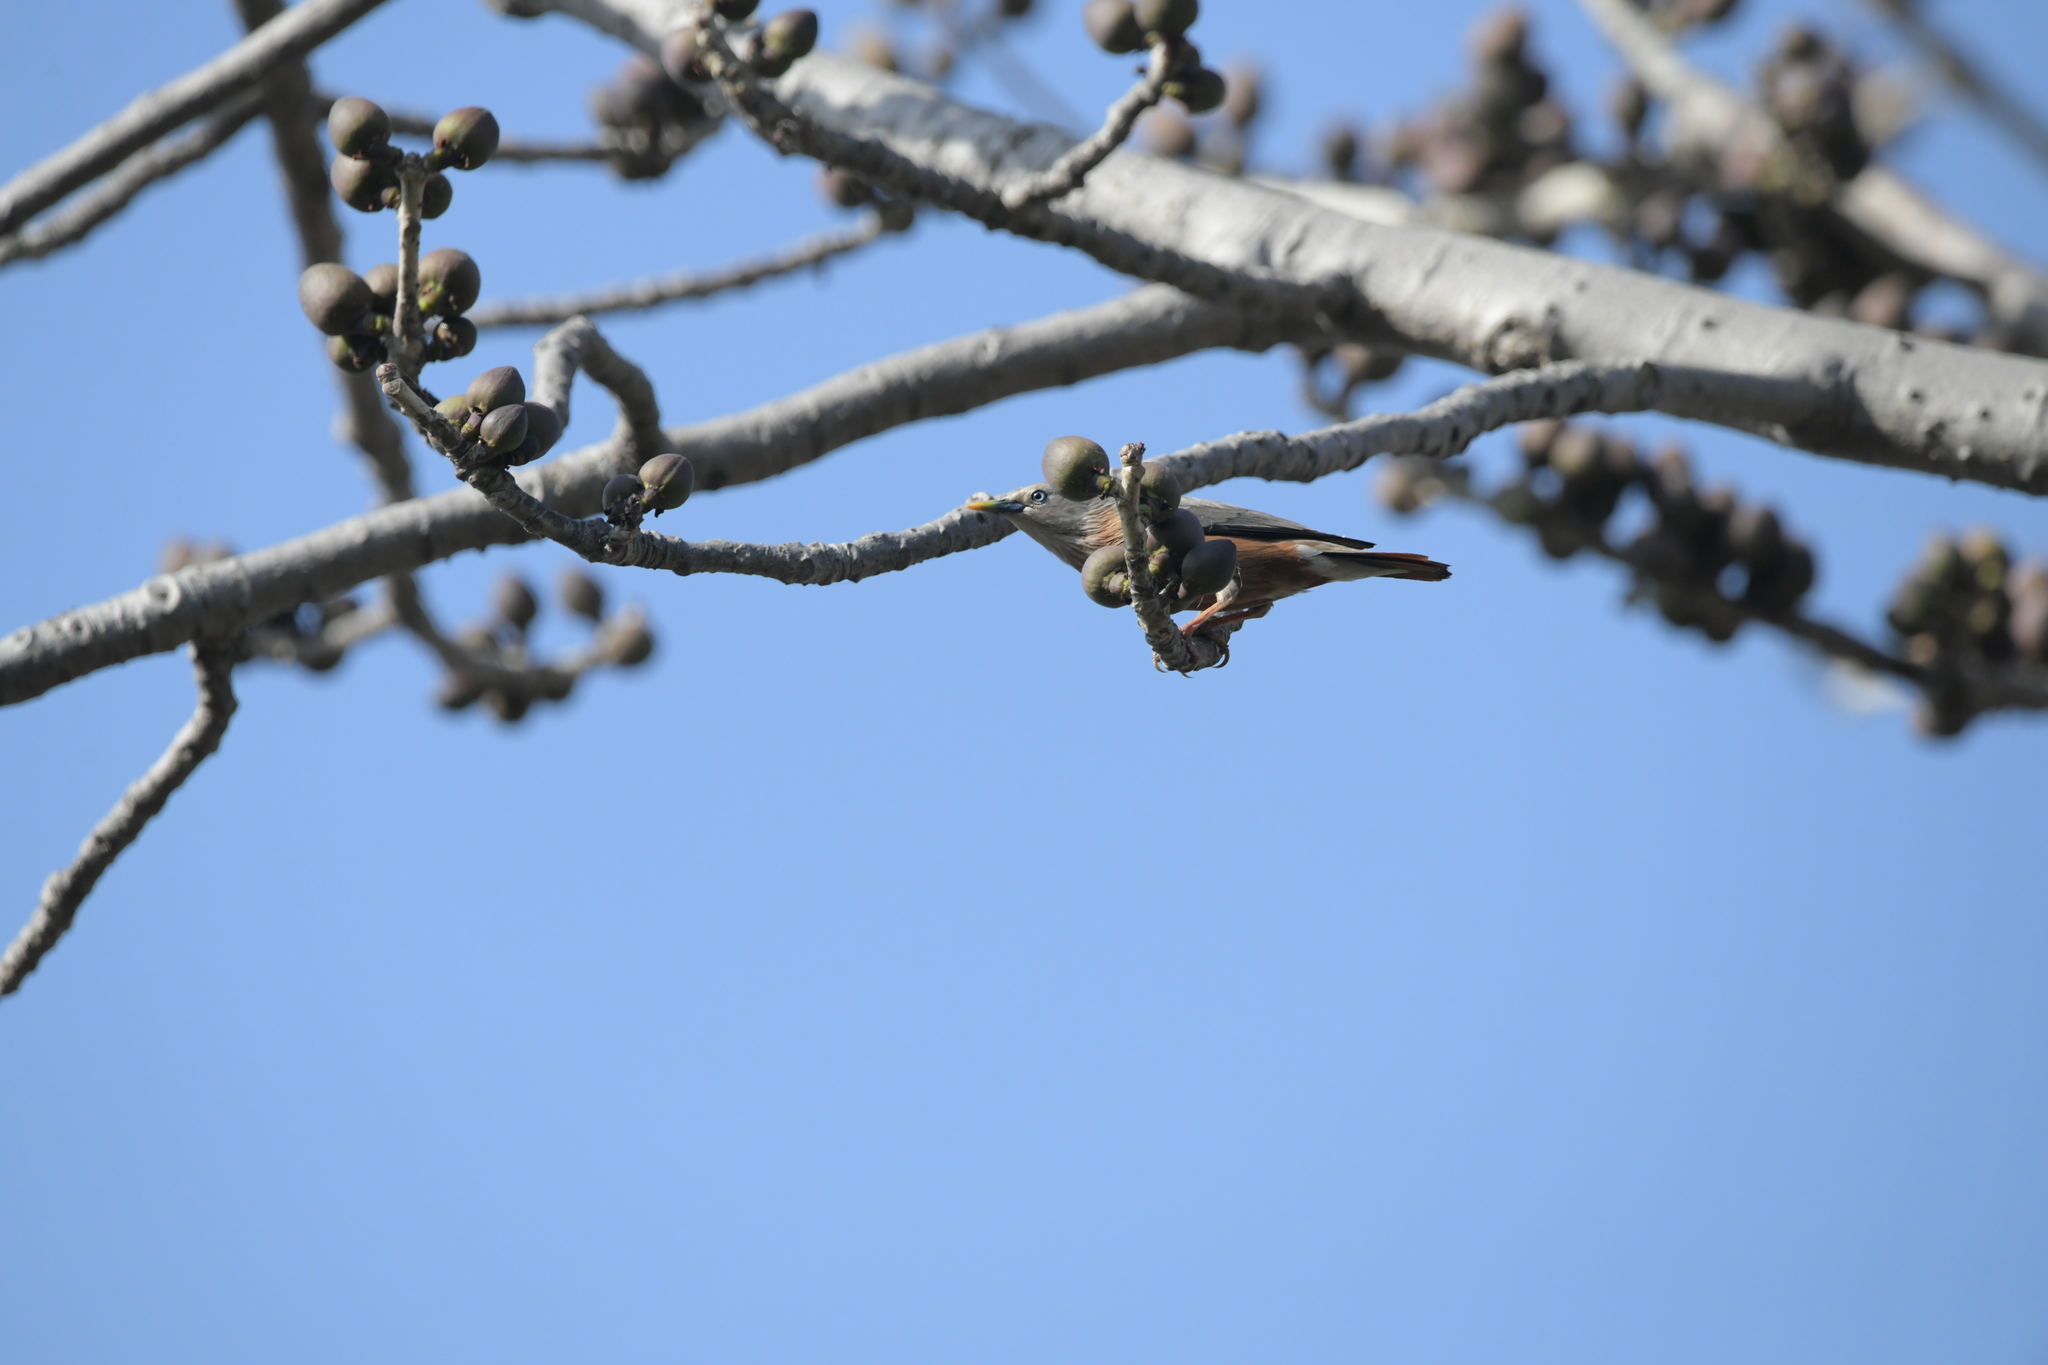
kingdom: Animalia
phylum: Chordata
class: Aves
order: Passeriformes
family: Sturnidae
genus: Sturnia
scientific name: Sturnia malabarica
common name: Chestnut-tailed starling
